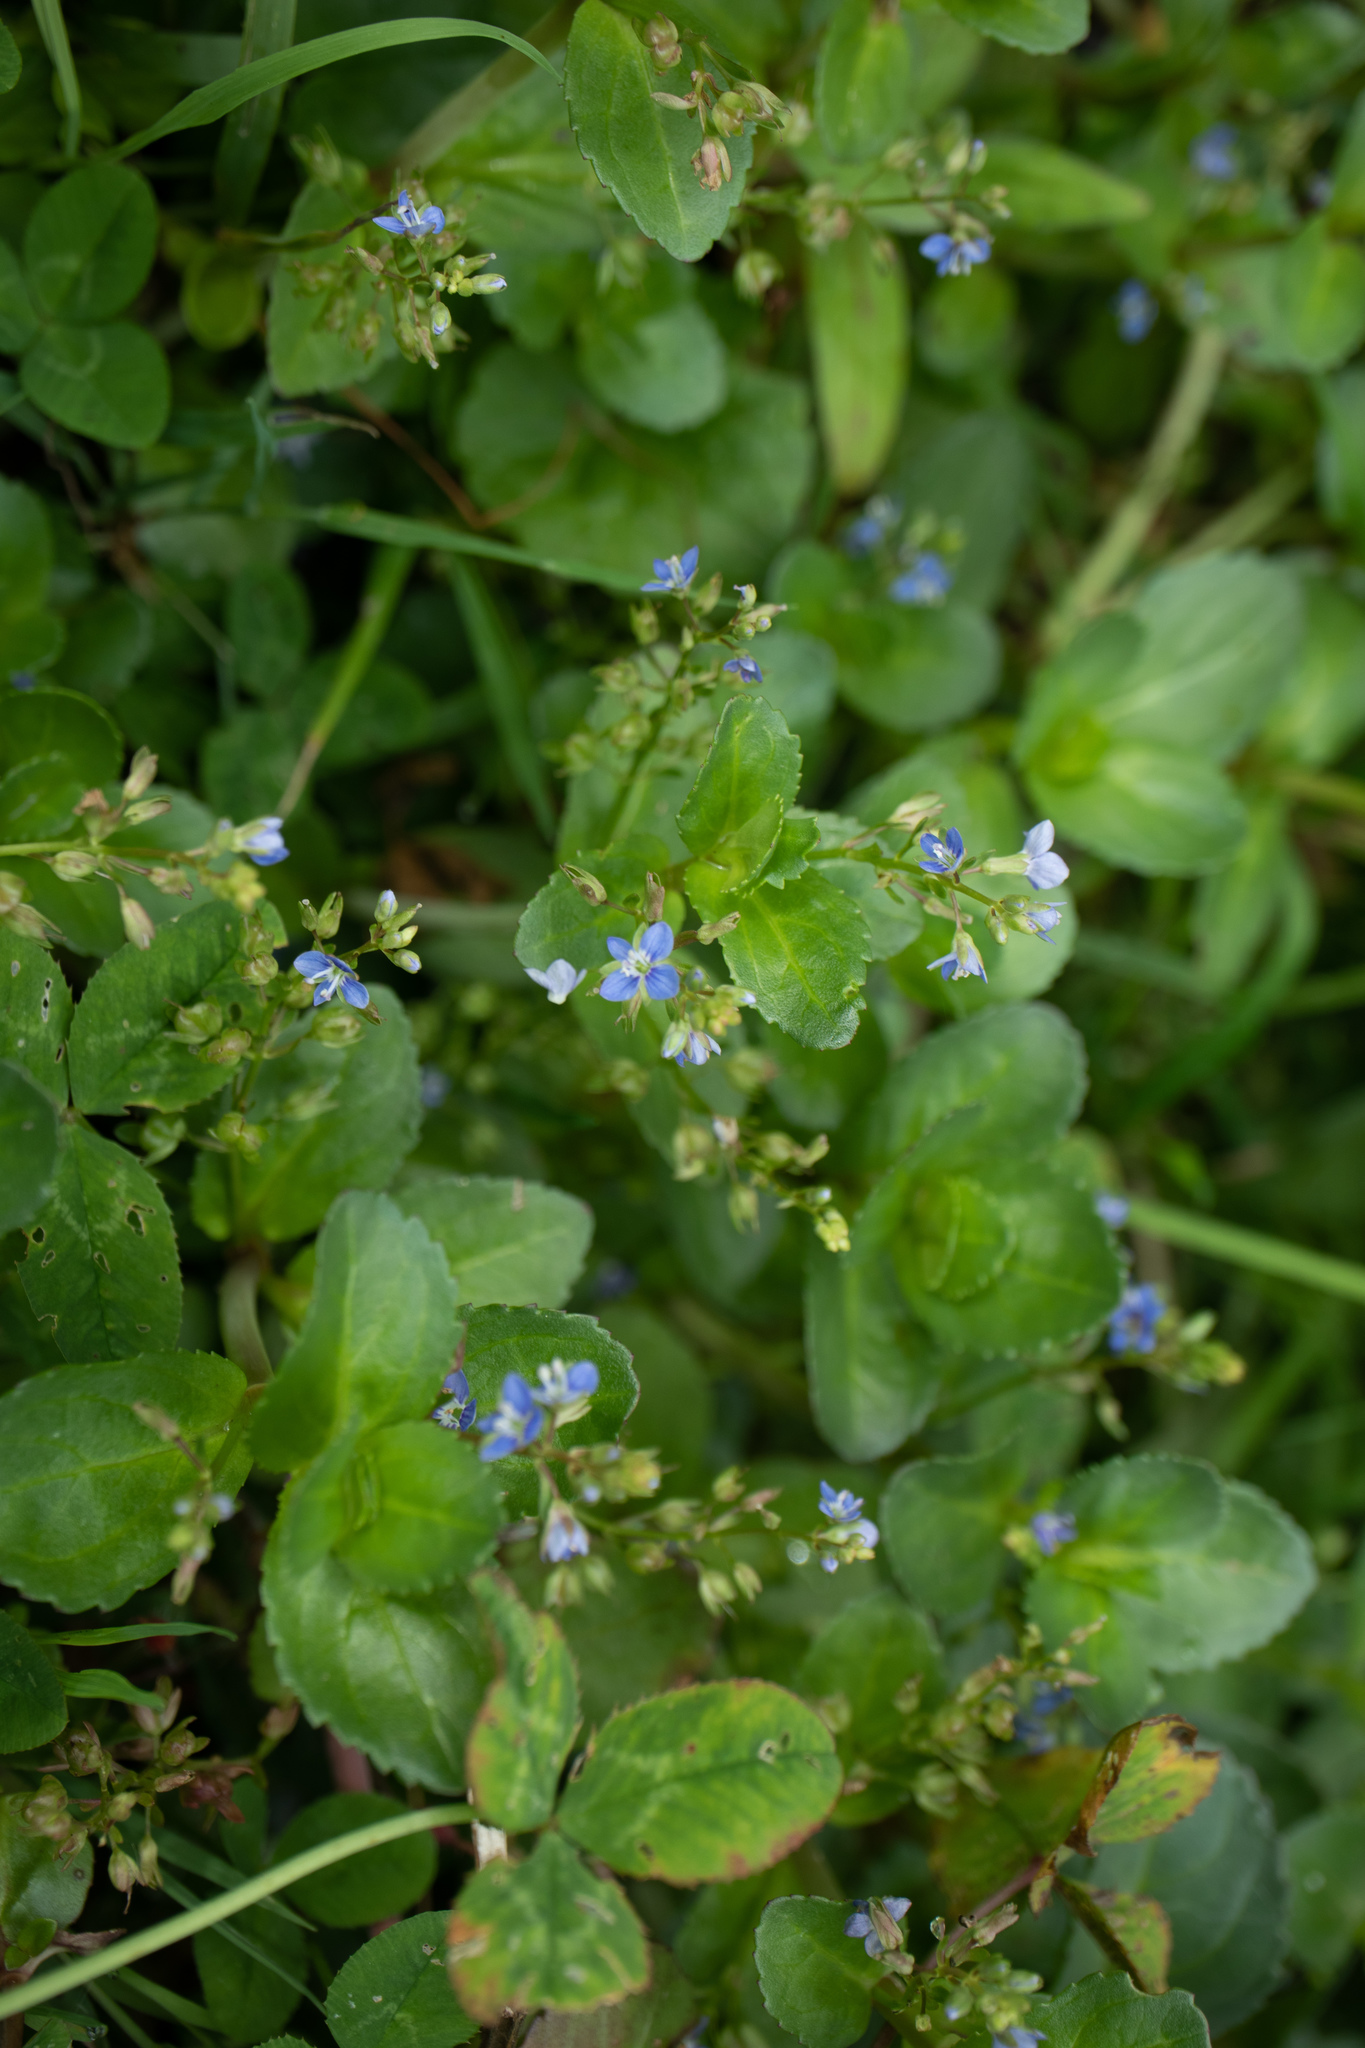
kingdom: Plantae
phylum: Tracheophyta
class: Magnoliopsida
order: Lamiales
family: Plantaginaceae
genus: Veronica
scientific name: Veronica beccabunga
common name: Brooklime
